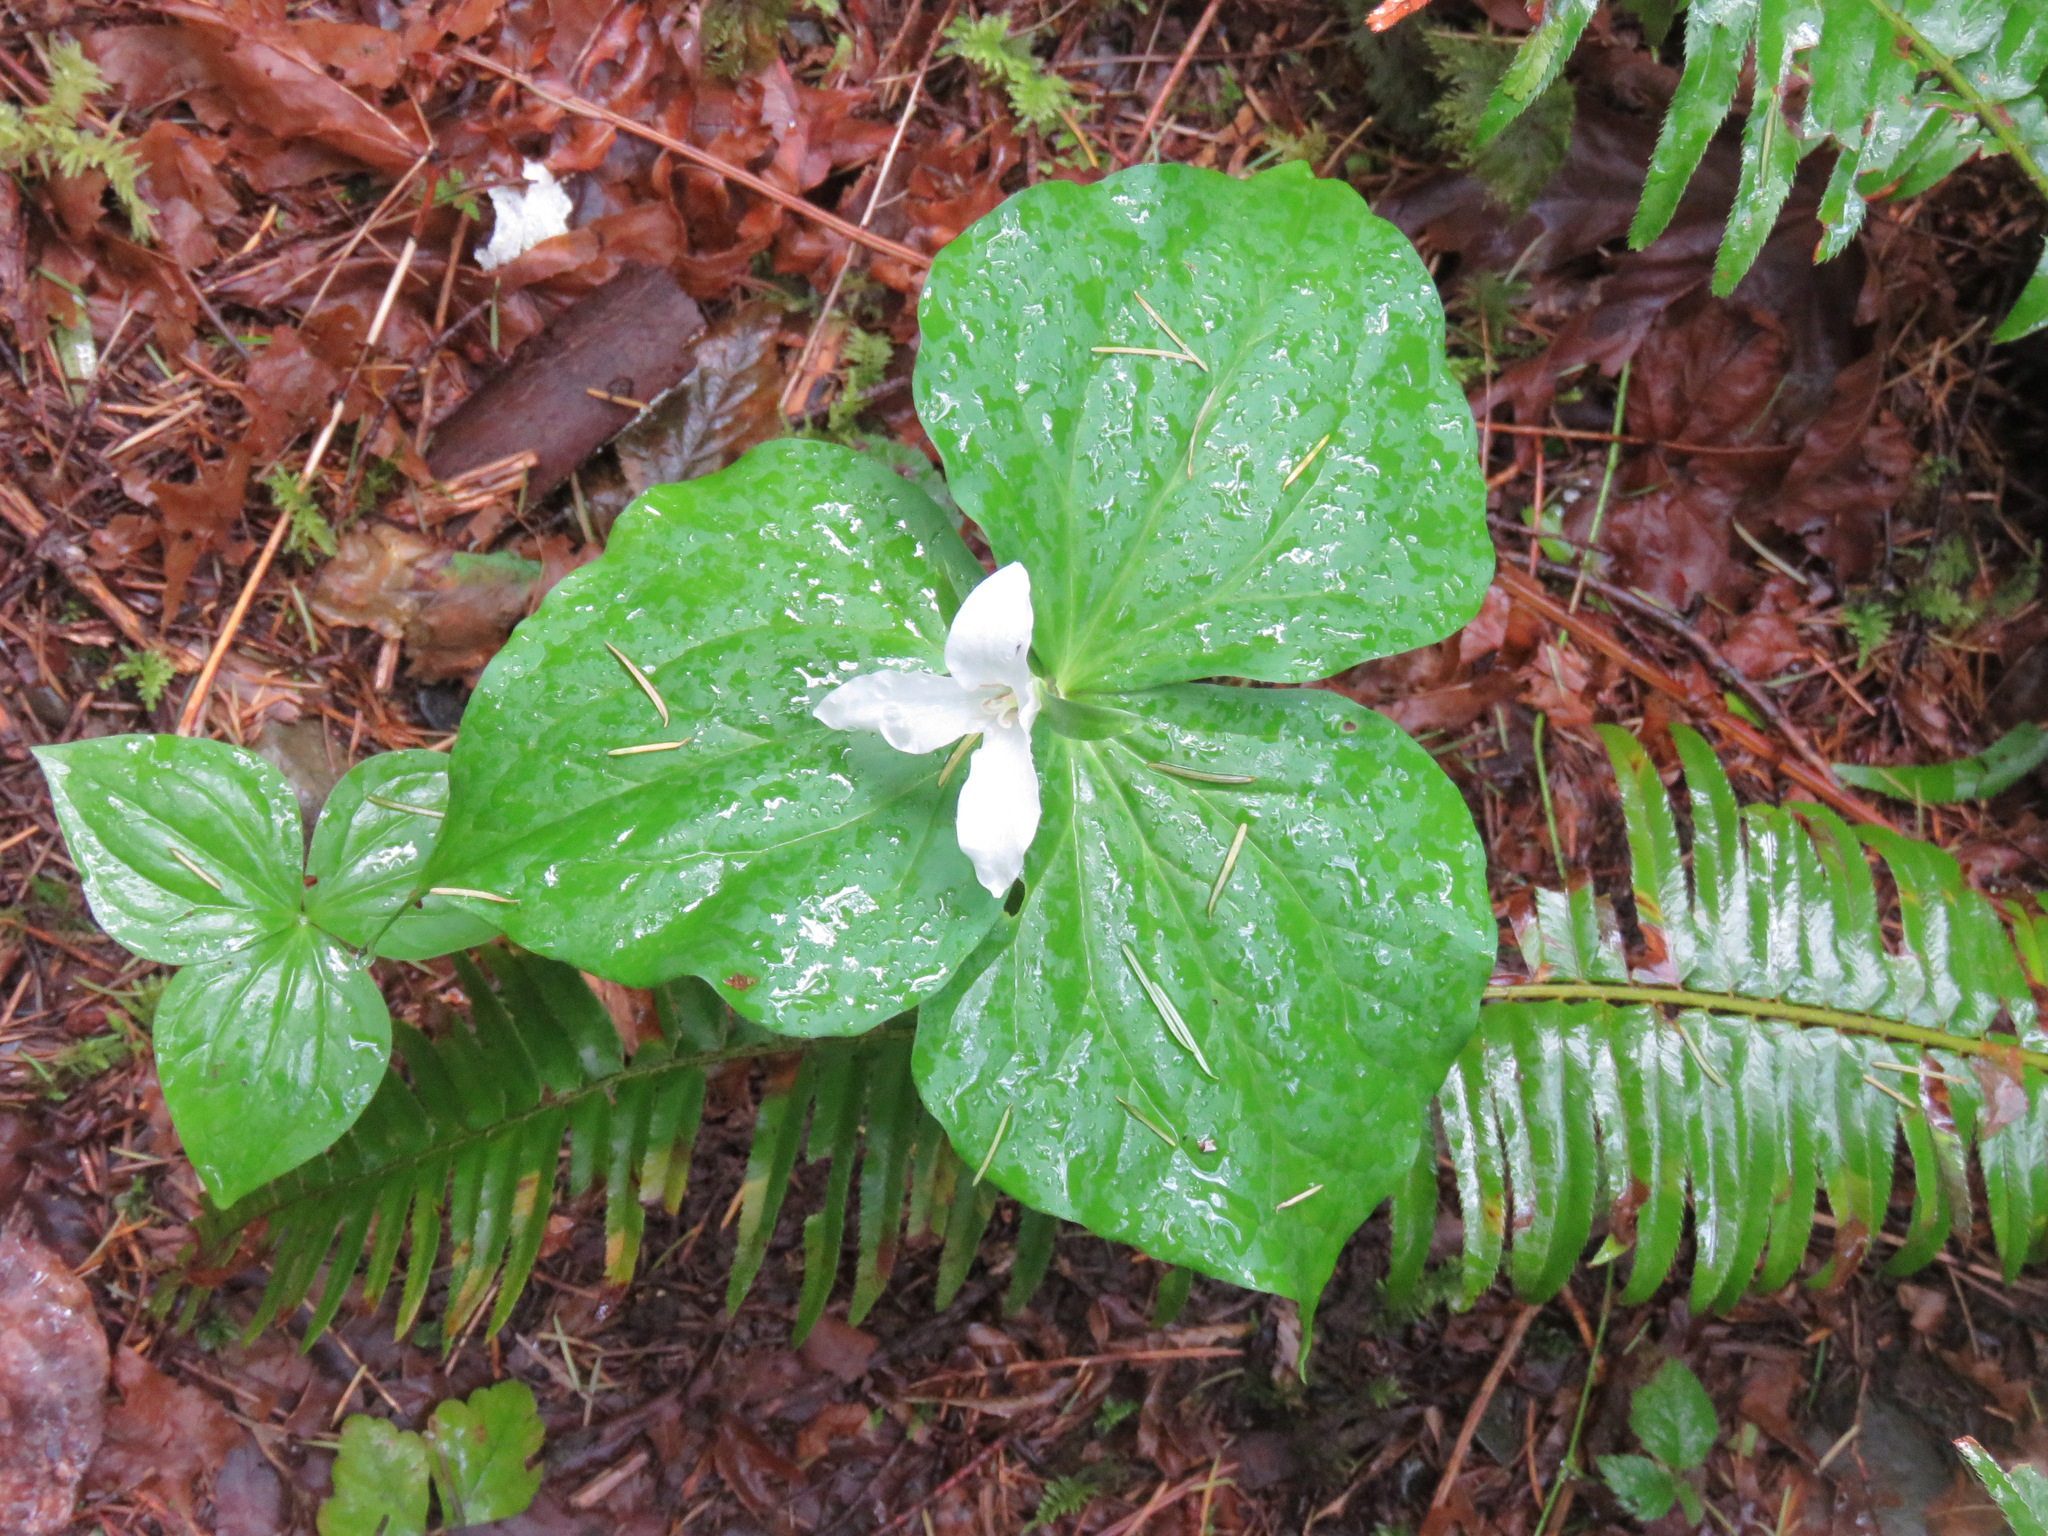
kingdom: Plantae
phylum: Tracheophyta
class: Liliopsida
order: Liliales
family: Melanthiaceae
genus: Trillium
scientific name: Trillium ovatum
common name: Pacific trillium
